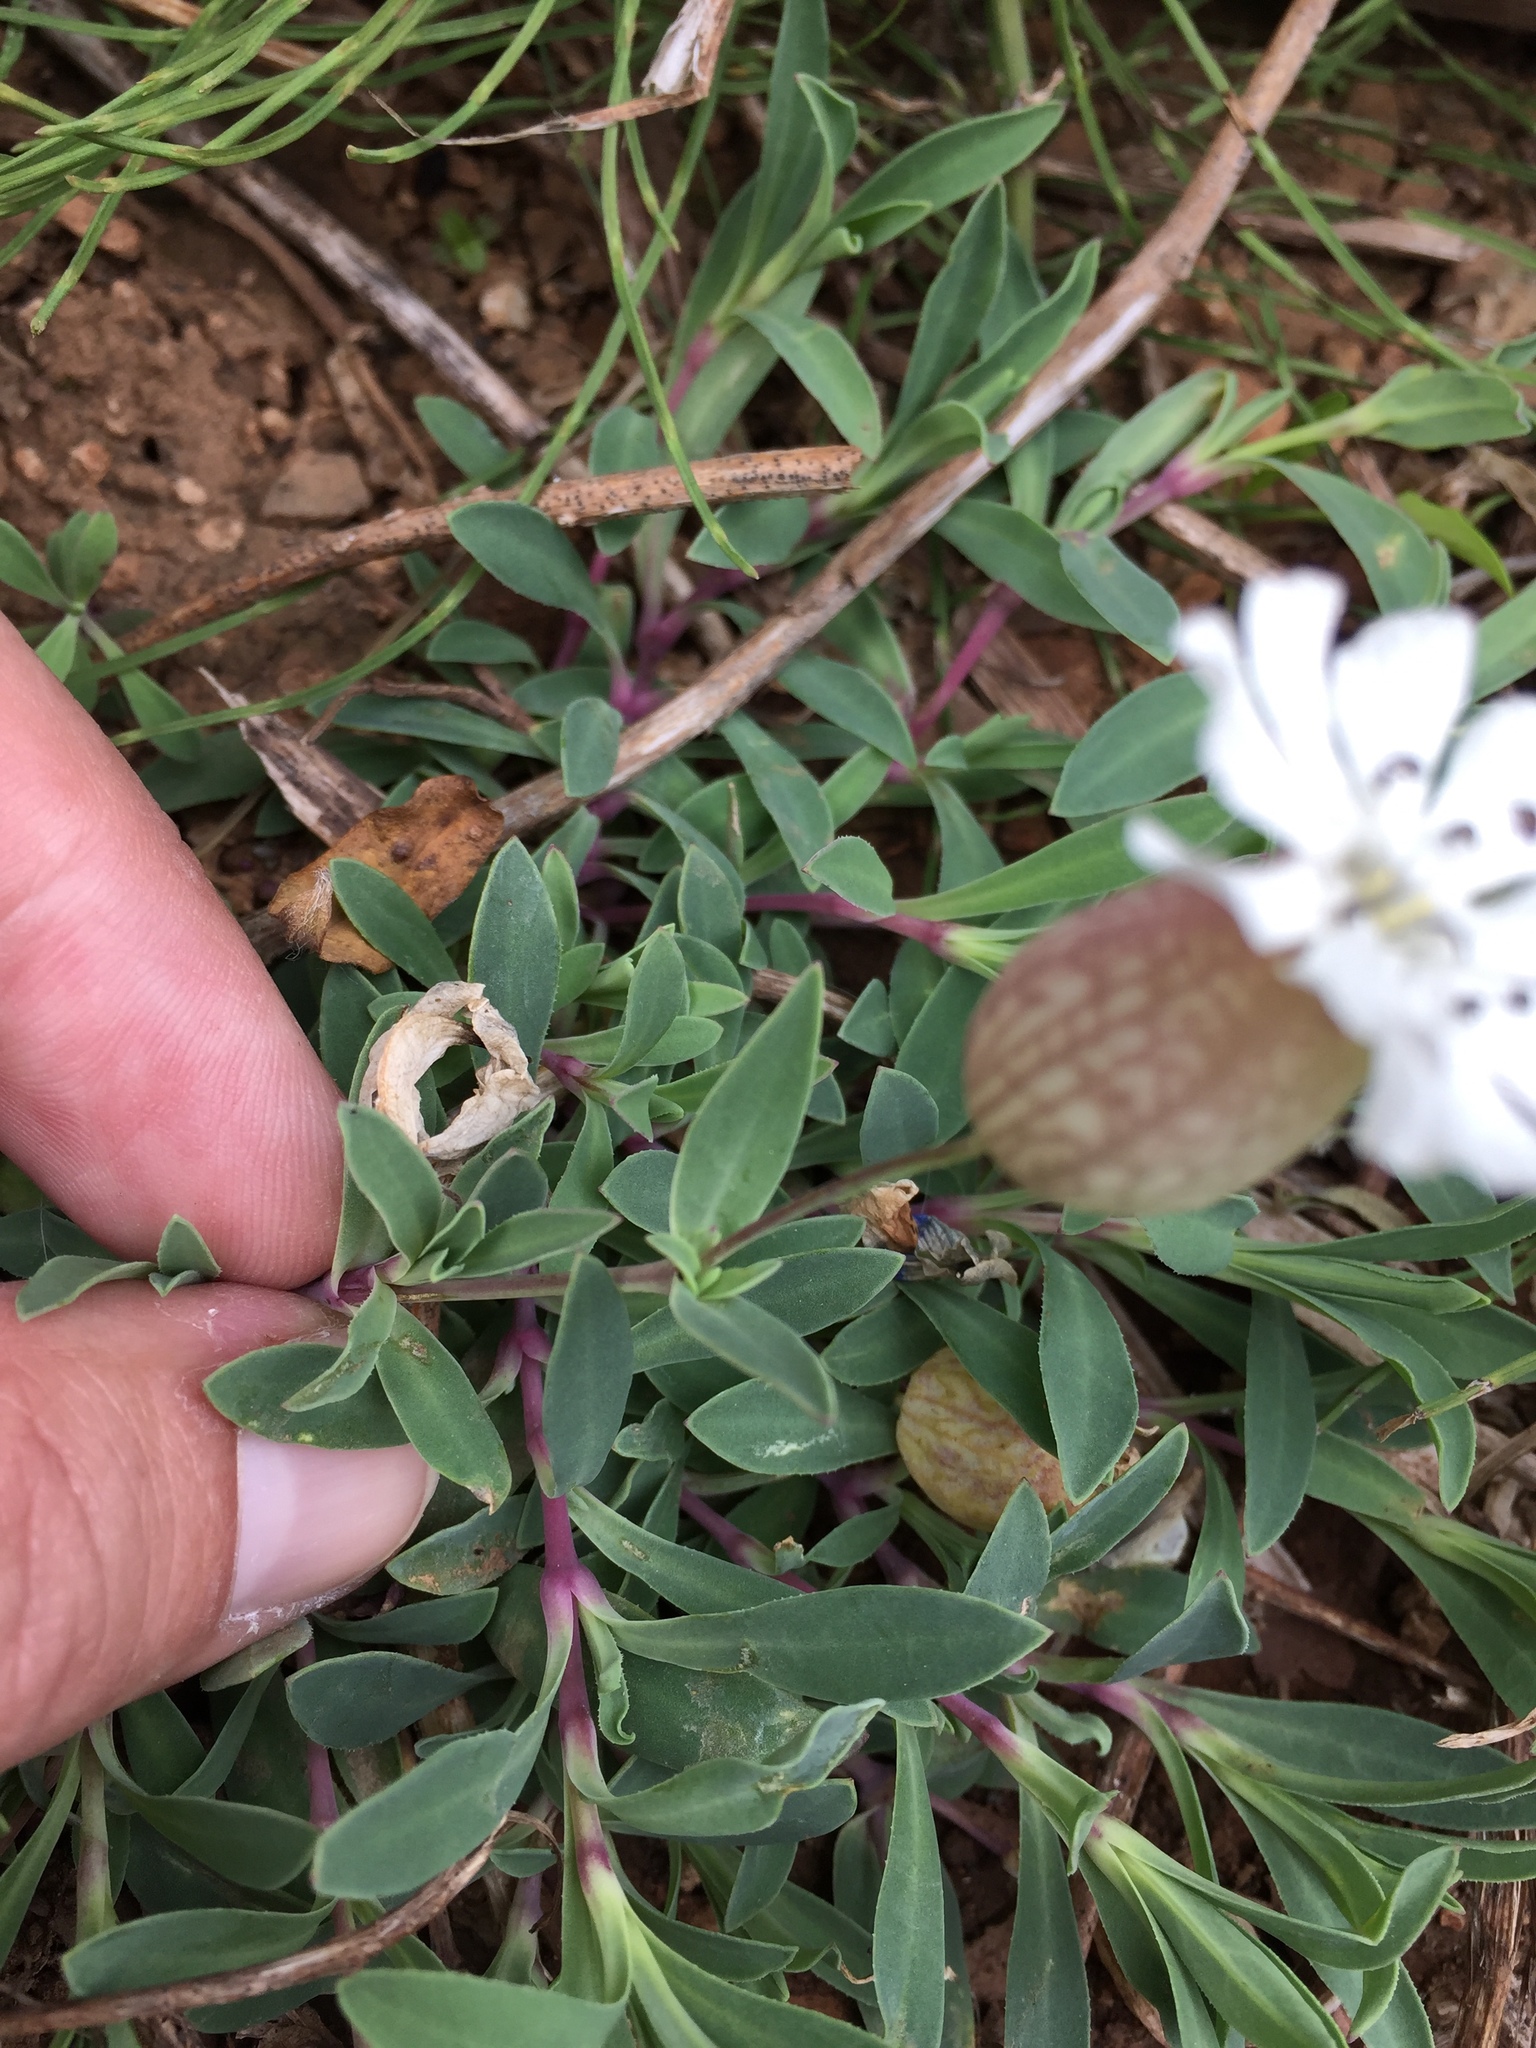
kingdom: Plantae
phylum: Tracheophyta
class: Magnoliopsida
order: Caryophyllales
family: Caryophyllaceae
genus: Silene
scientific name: Silene uniflora
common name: Sea campion
